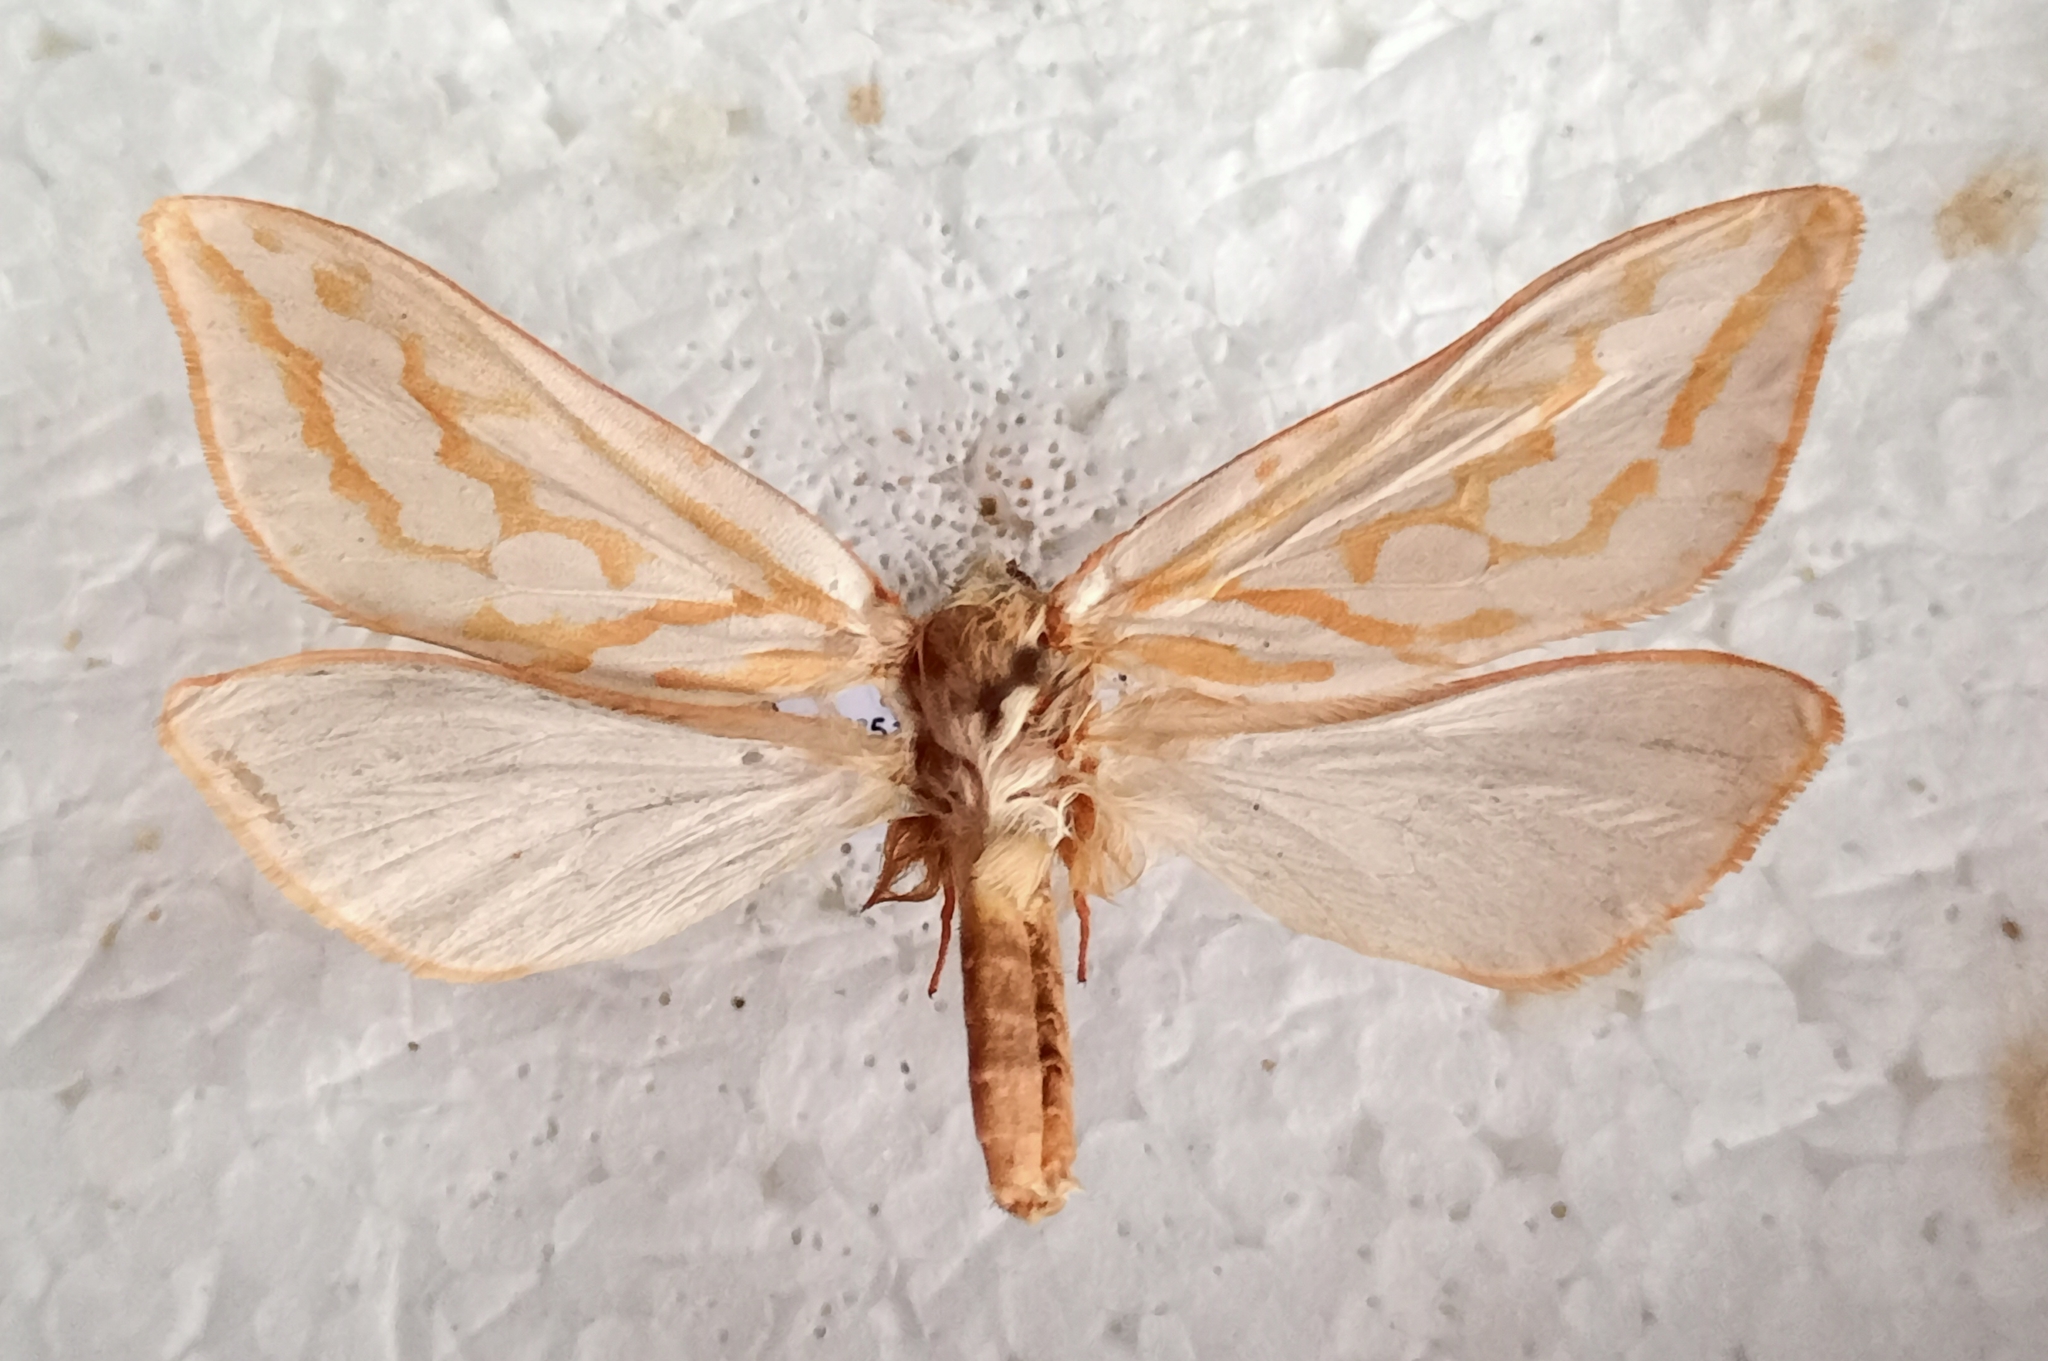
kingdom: Animalia
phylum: Arthropoda
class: Insecta
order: Lepidoptera
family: Hepialidae
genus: Hepialus
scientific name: Hepialus humuli
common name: Ghost moth
